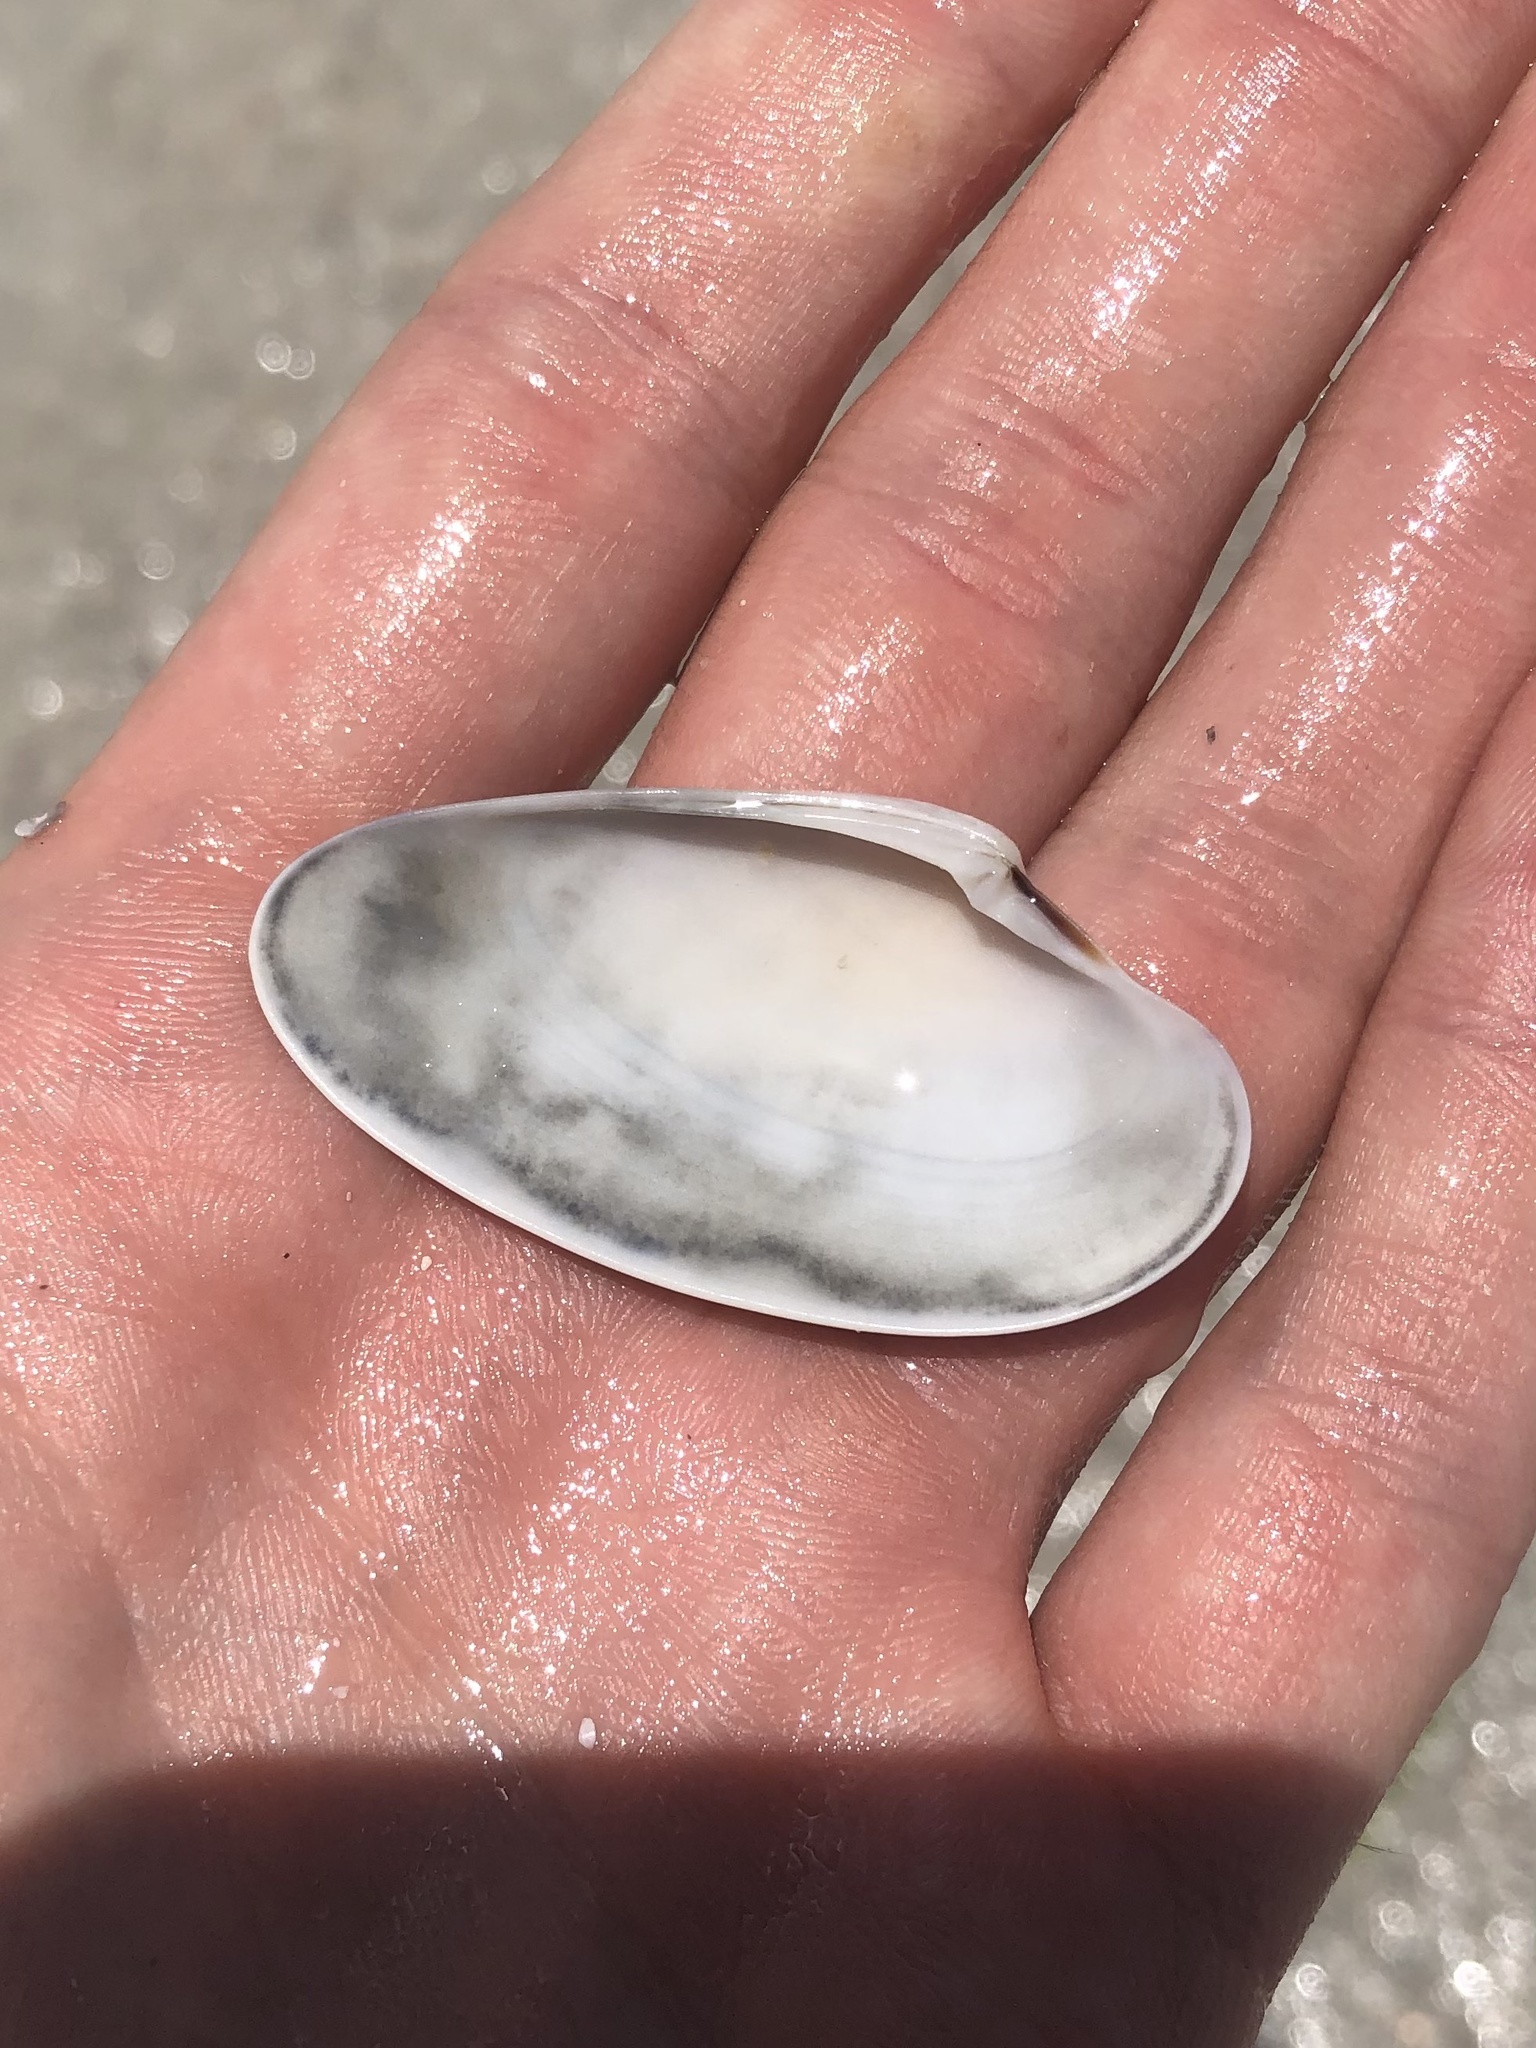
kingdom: Animalia
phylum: Mollusca
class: Bivalvia
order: Venerida
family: Veneridae
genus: Macrocallista
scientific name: Macrocallista nimbosa
